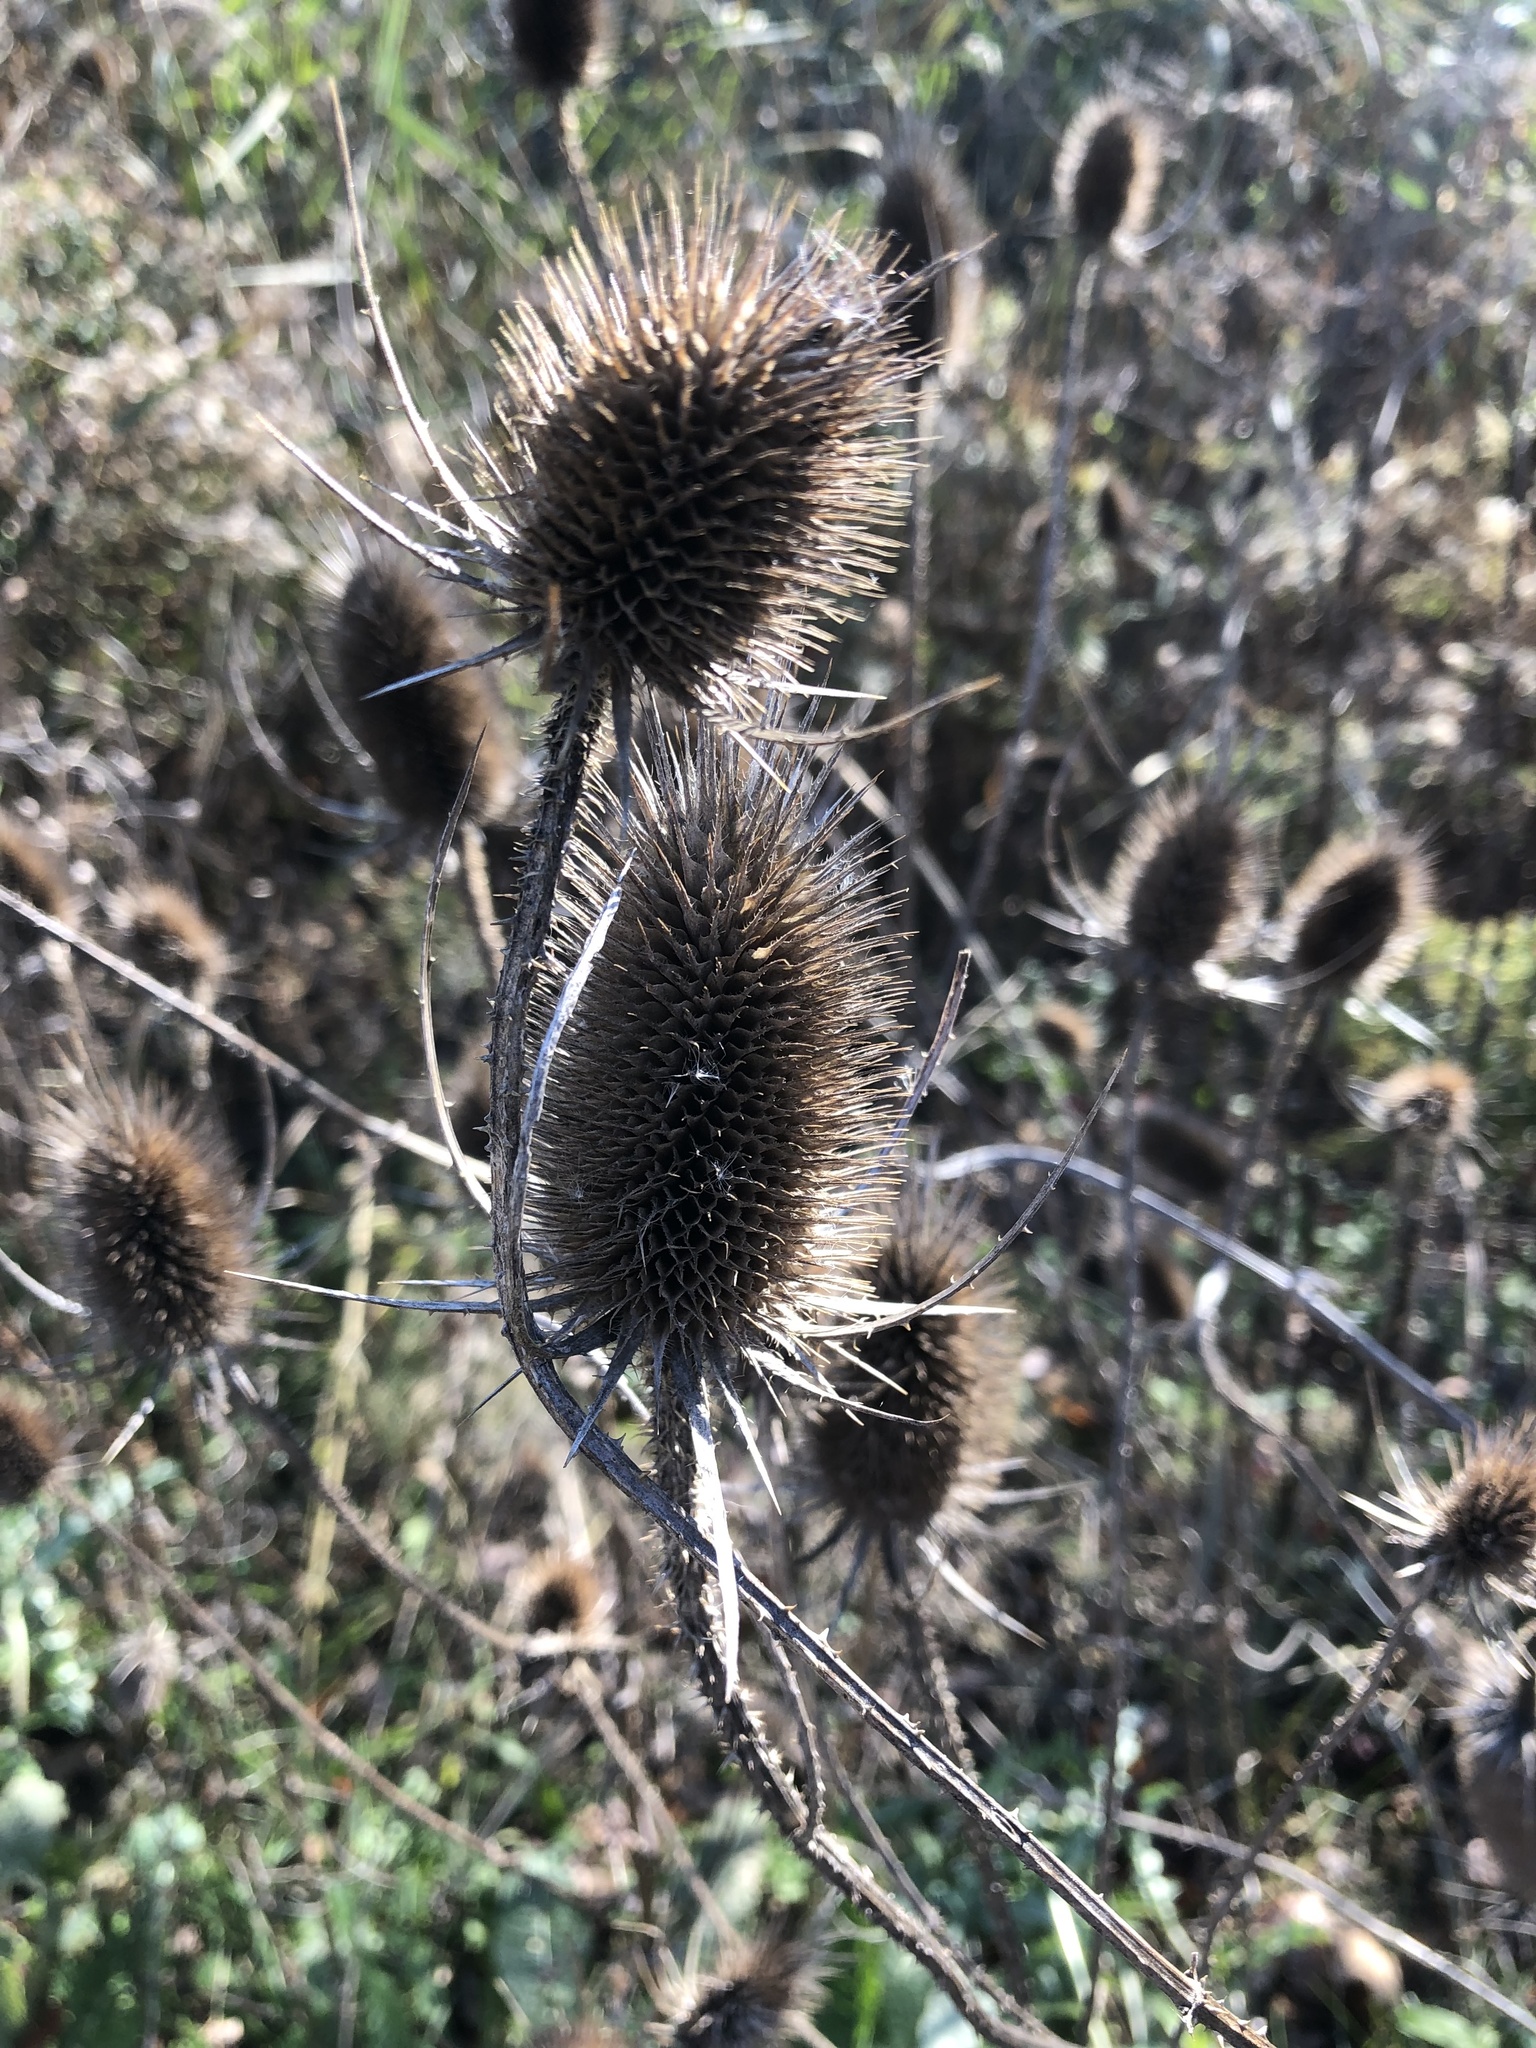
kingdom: Plantae
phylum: Tracheophyta
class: Magnoliopsida
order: Dipsacales
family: Caprifoliaceae
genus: Dipsacus
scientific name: Dipsacus fullonum
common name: Teasel
